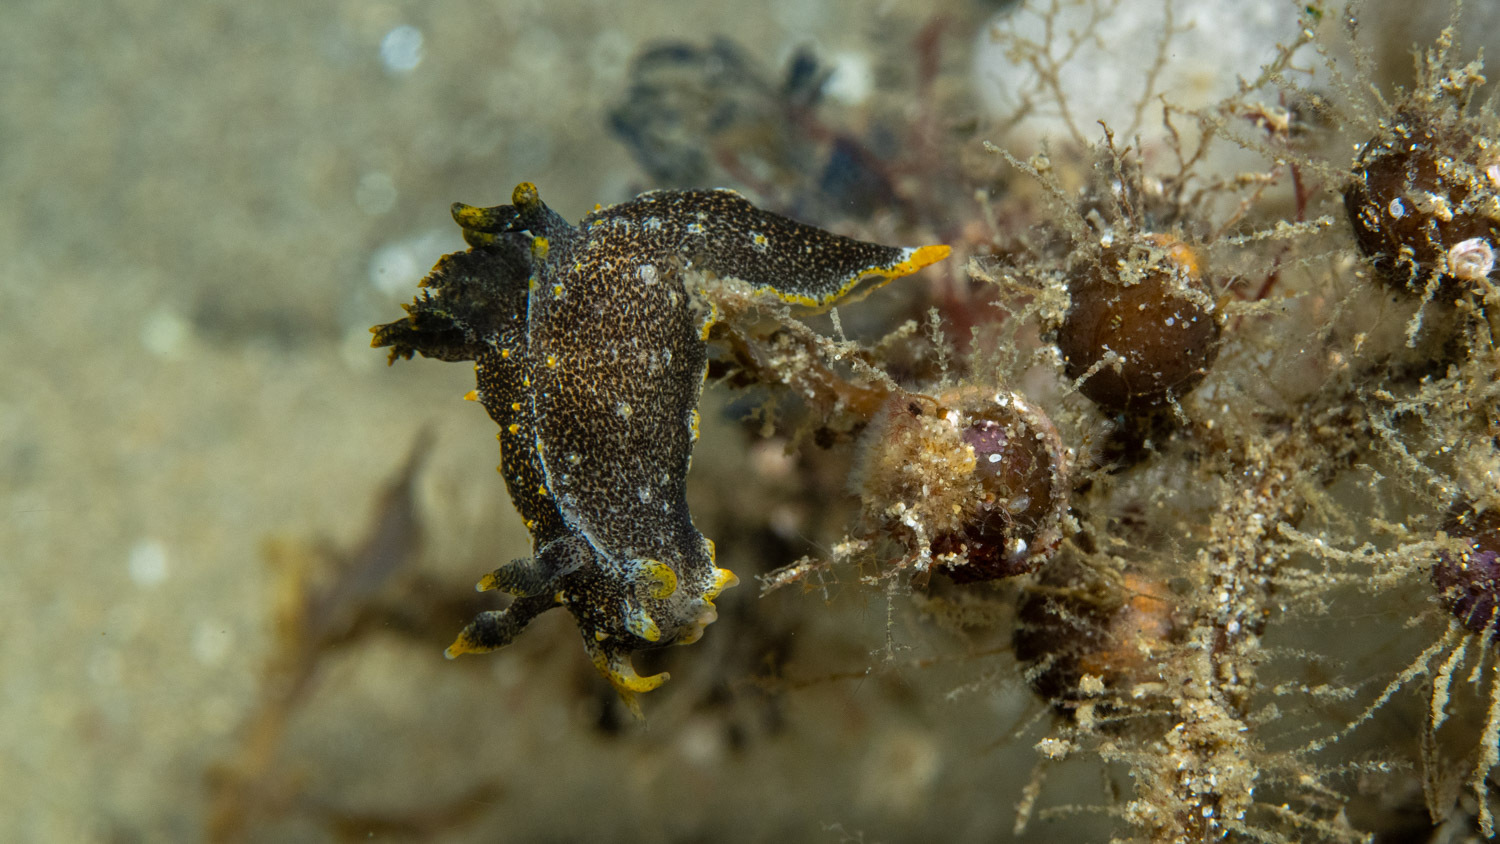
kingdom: Animalia
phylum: Mollusca
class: Gastropoda
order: Nudibranchia
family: Polyceridae
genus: Polycera
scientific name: Polycera hedgpethi
